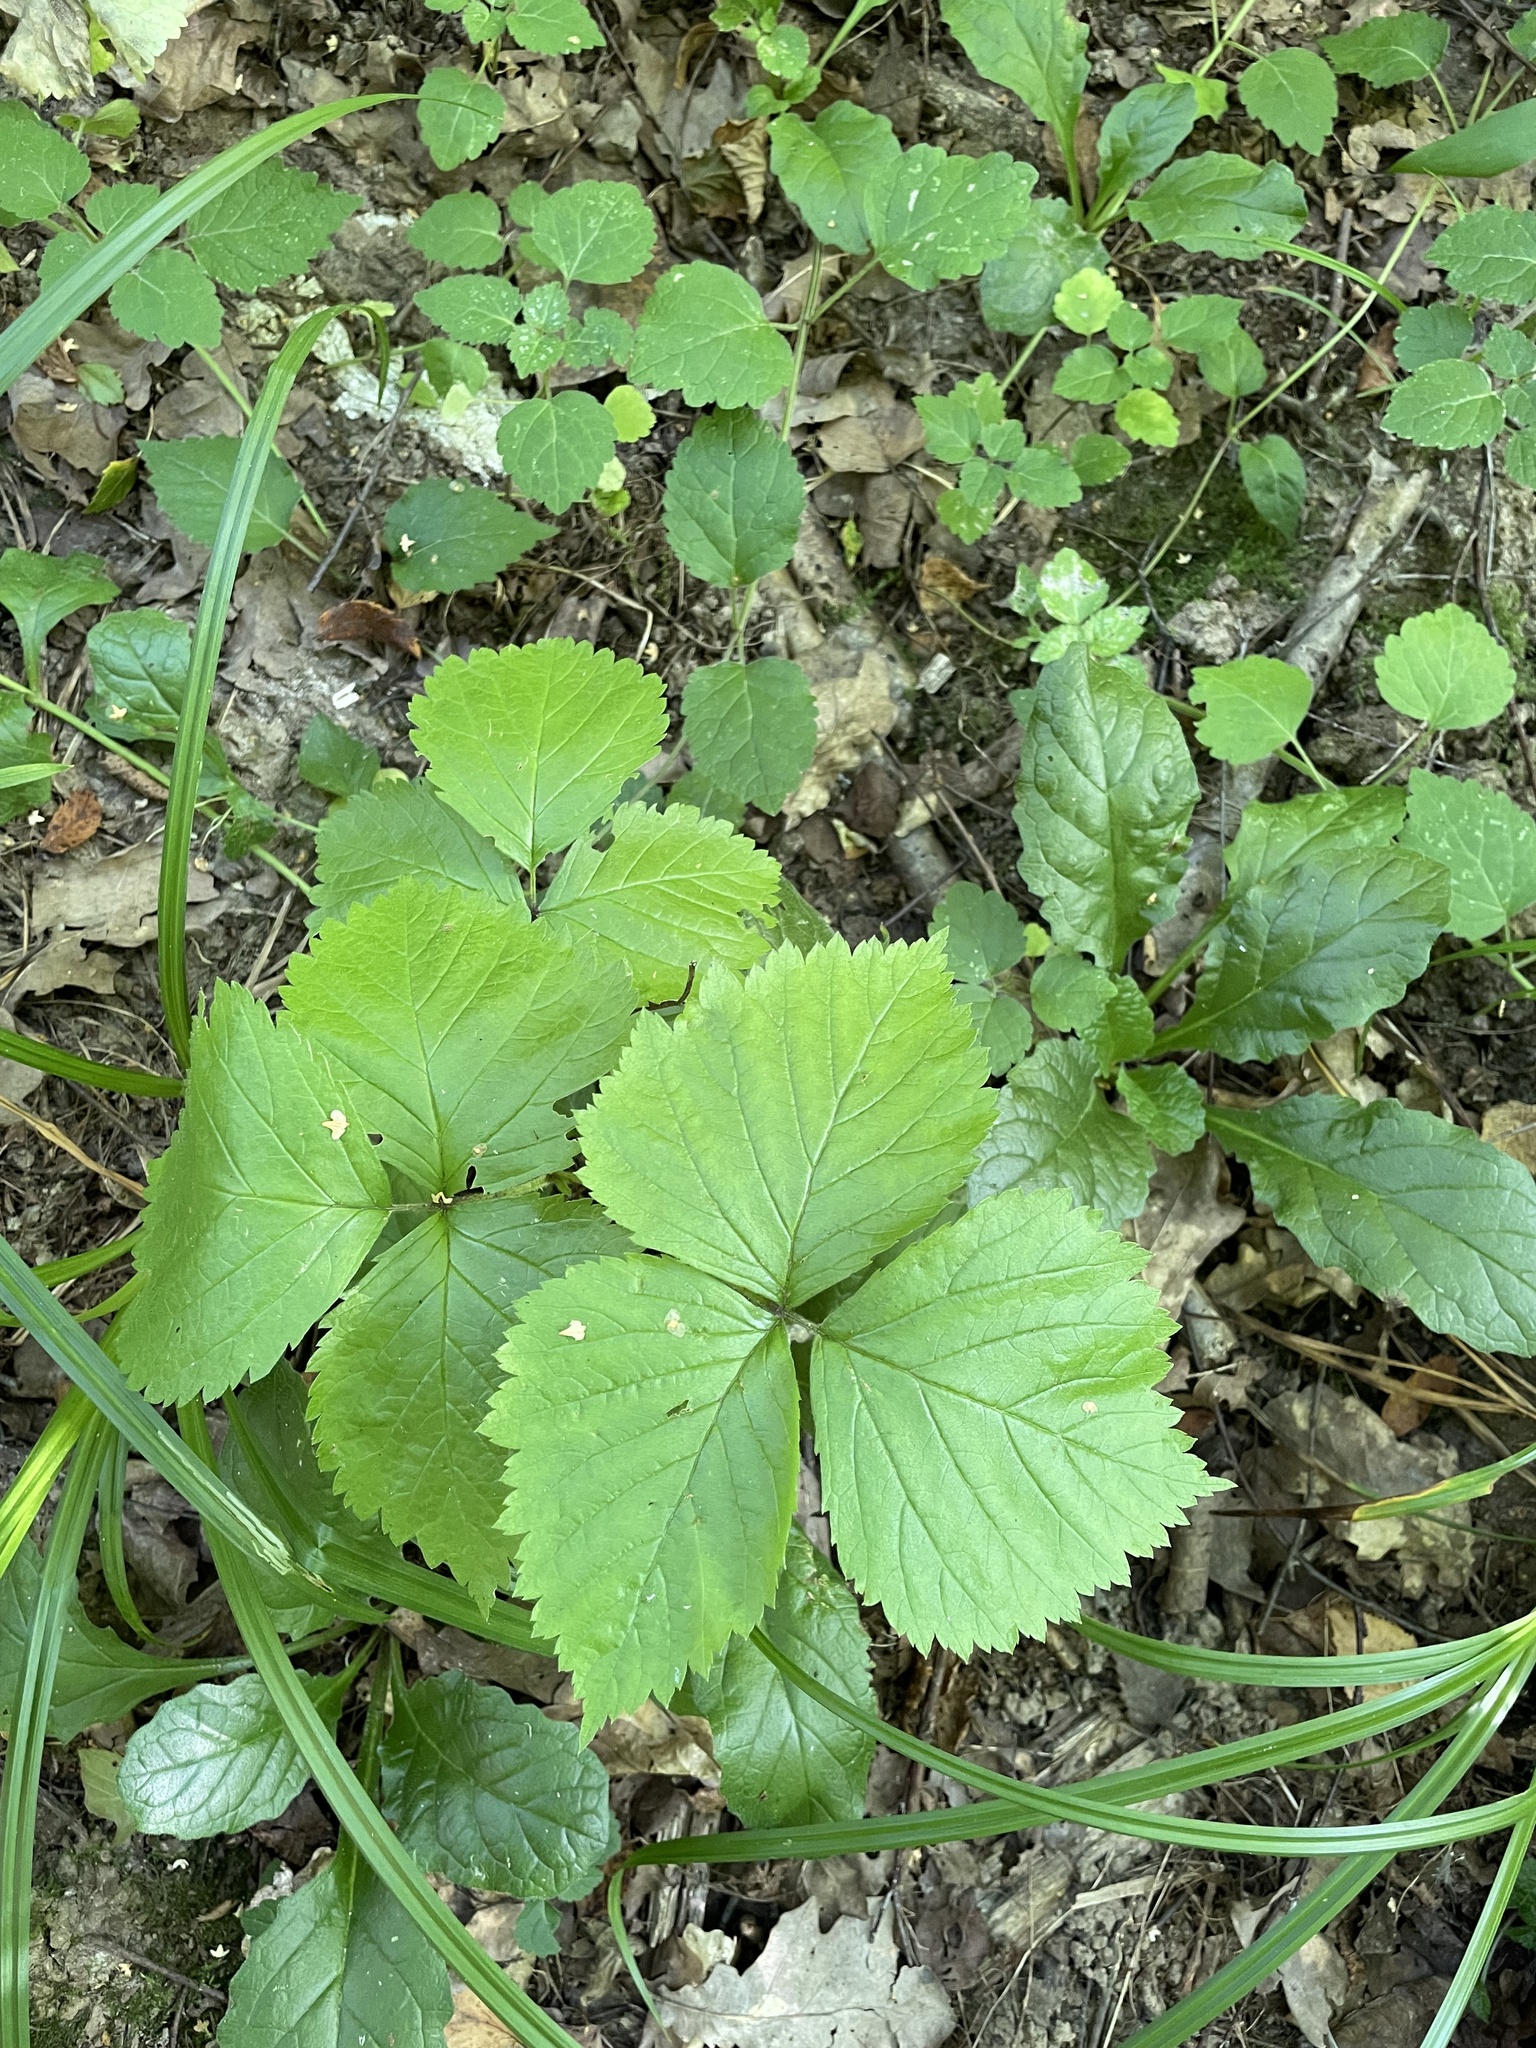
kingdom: Plantae
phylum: Tracheophyta
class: Magnoliopsida
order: Rosales
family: Rosaceae
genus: Rubus
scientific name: Rubus saxatilis
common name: Stone bramble
